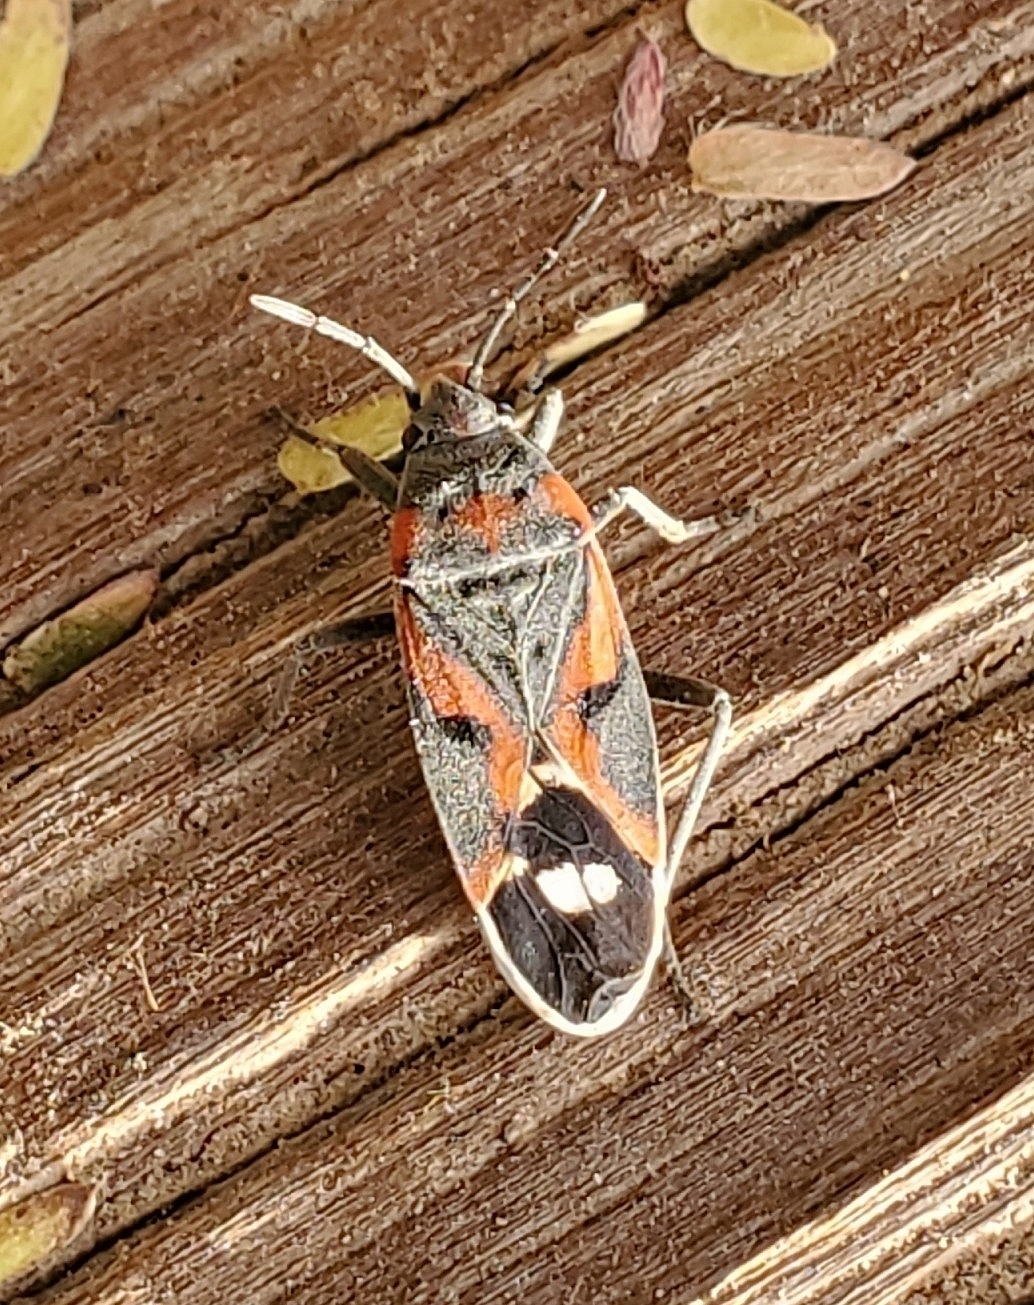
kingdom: Animalia
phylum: Arthropoda
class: Insecta
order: Hemiptera
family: Lygaeidae
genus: Lygaeus
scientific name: Lygaeus kalmii
